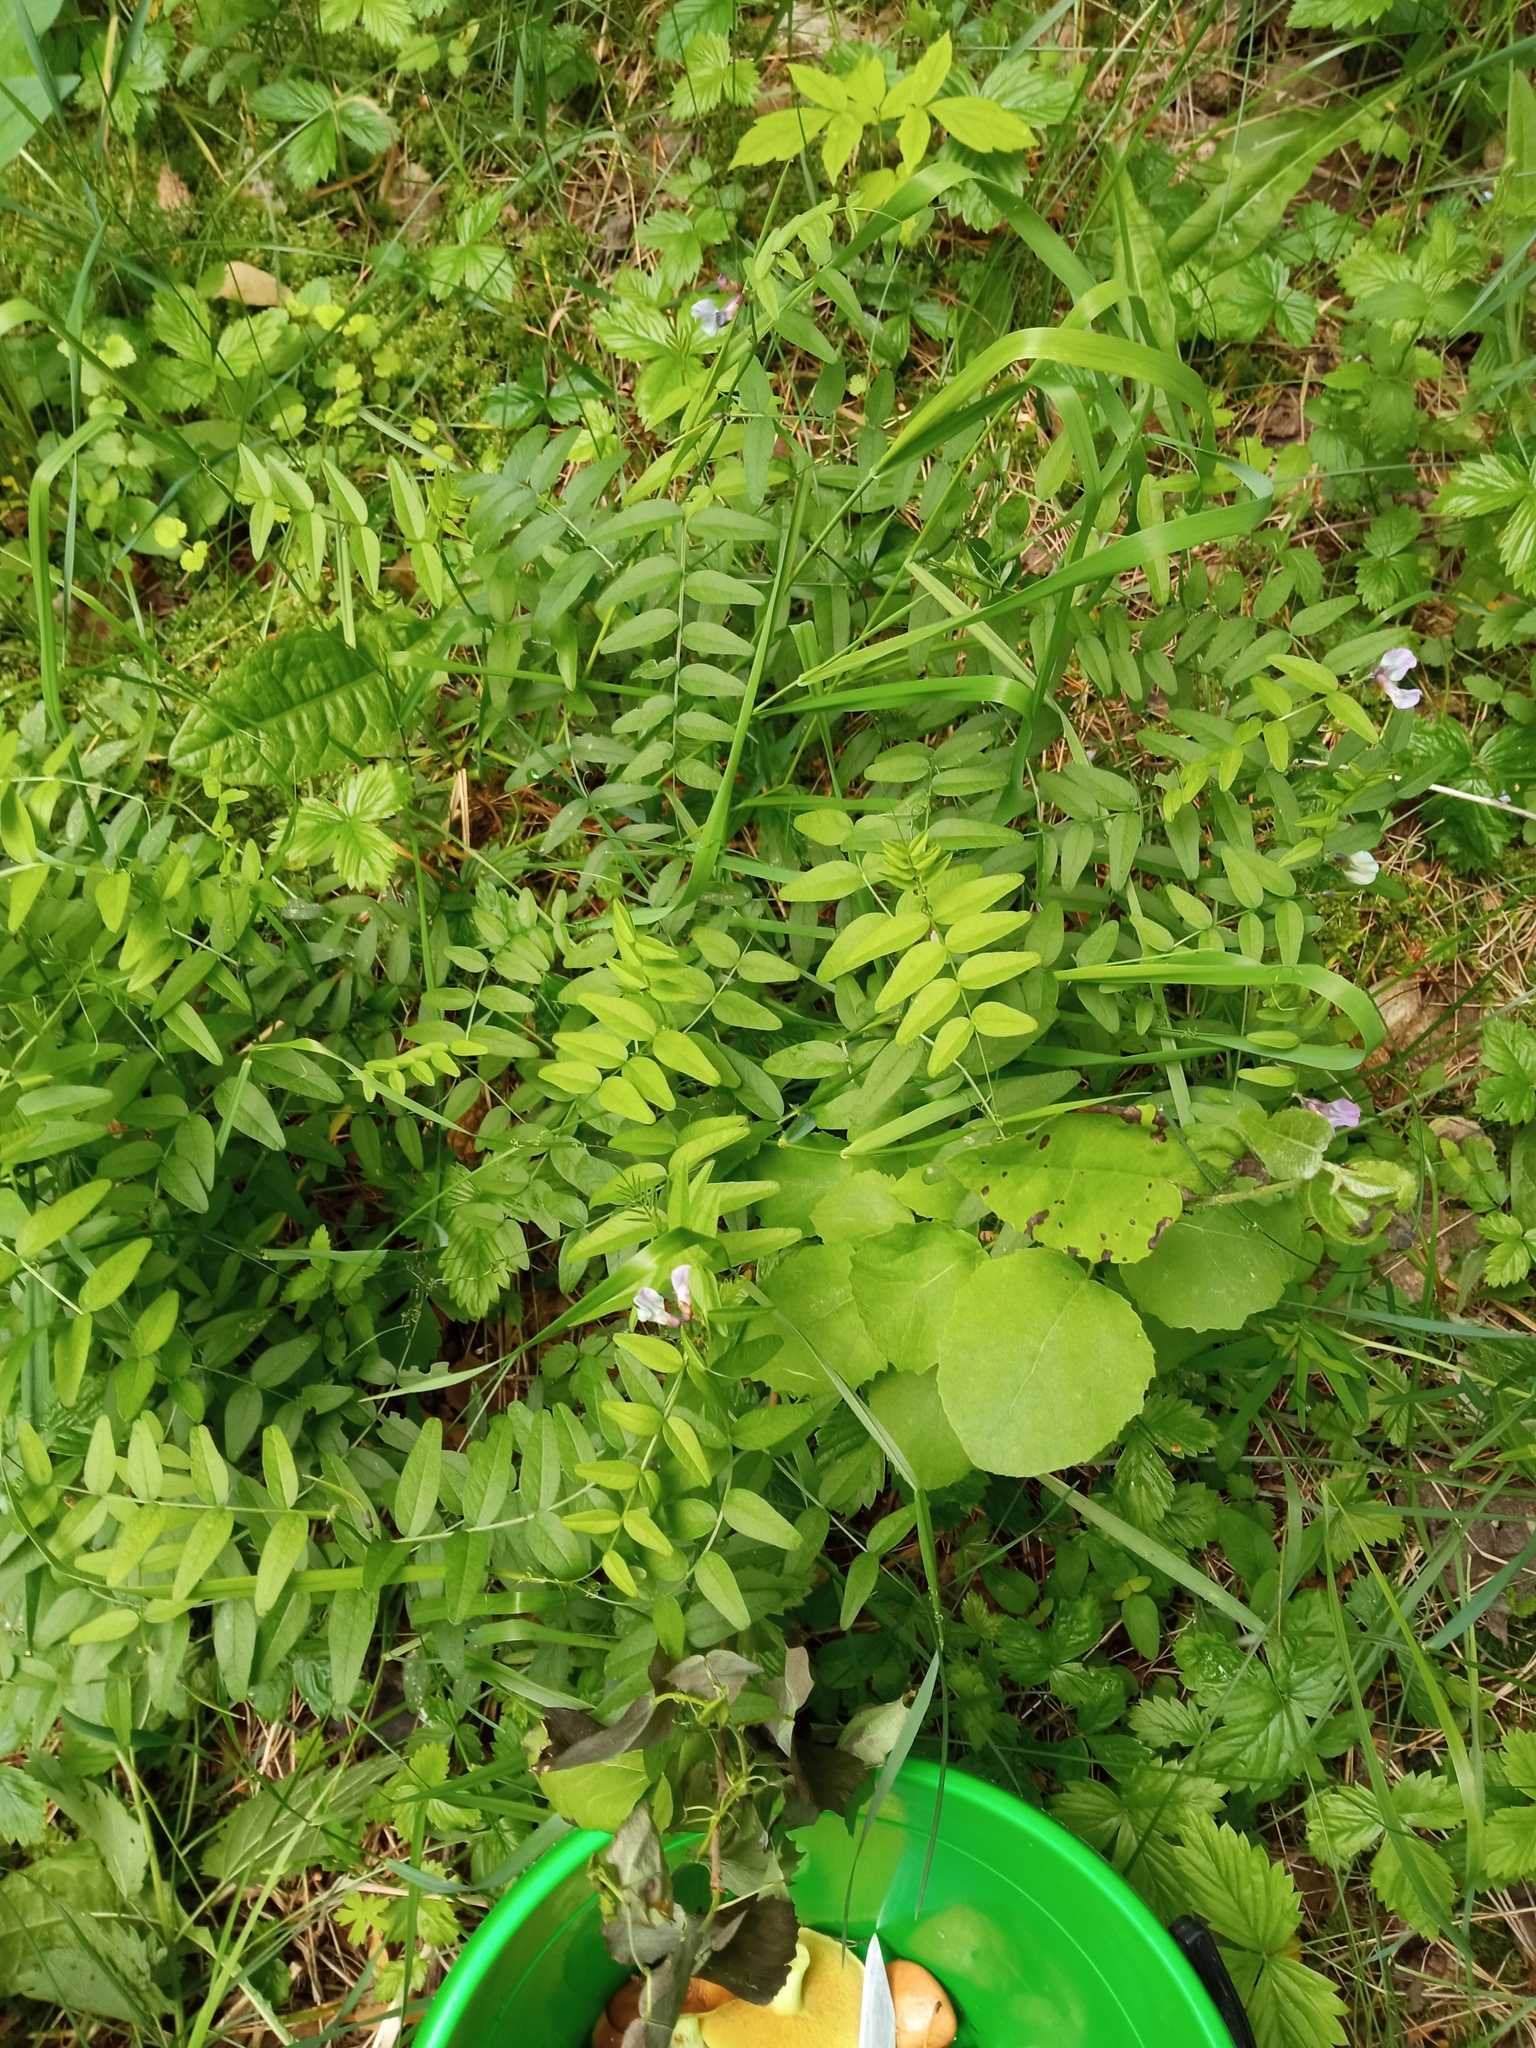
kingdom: Plantae
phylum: Tracheophyta
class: Magnoliopsida
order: Fabales
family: Fabaceae
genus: Vicia
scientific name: Vicia sepium
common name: Bush vetch
